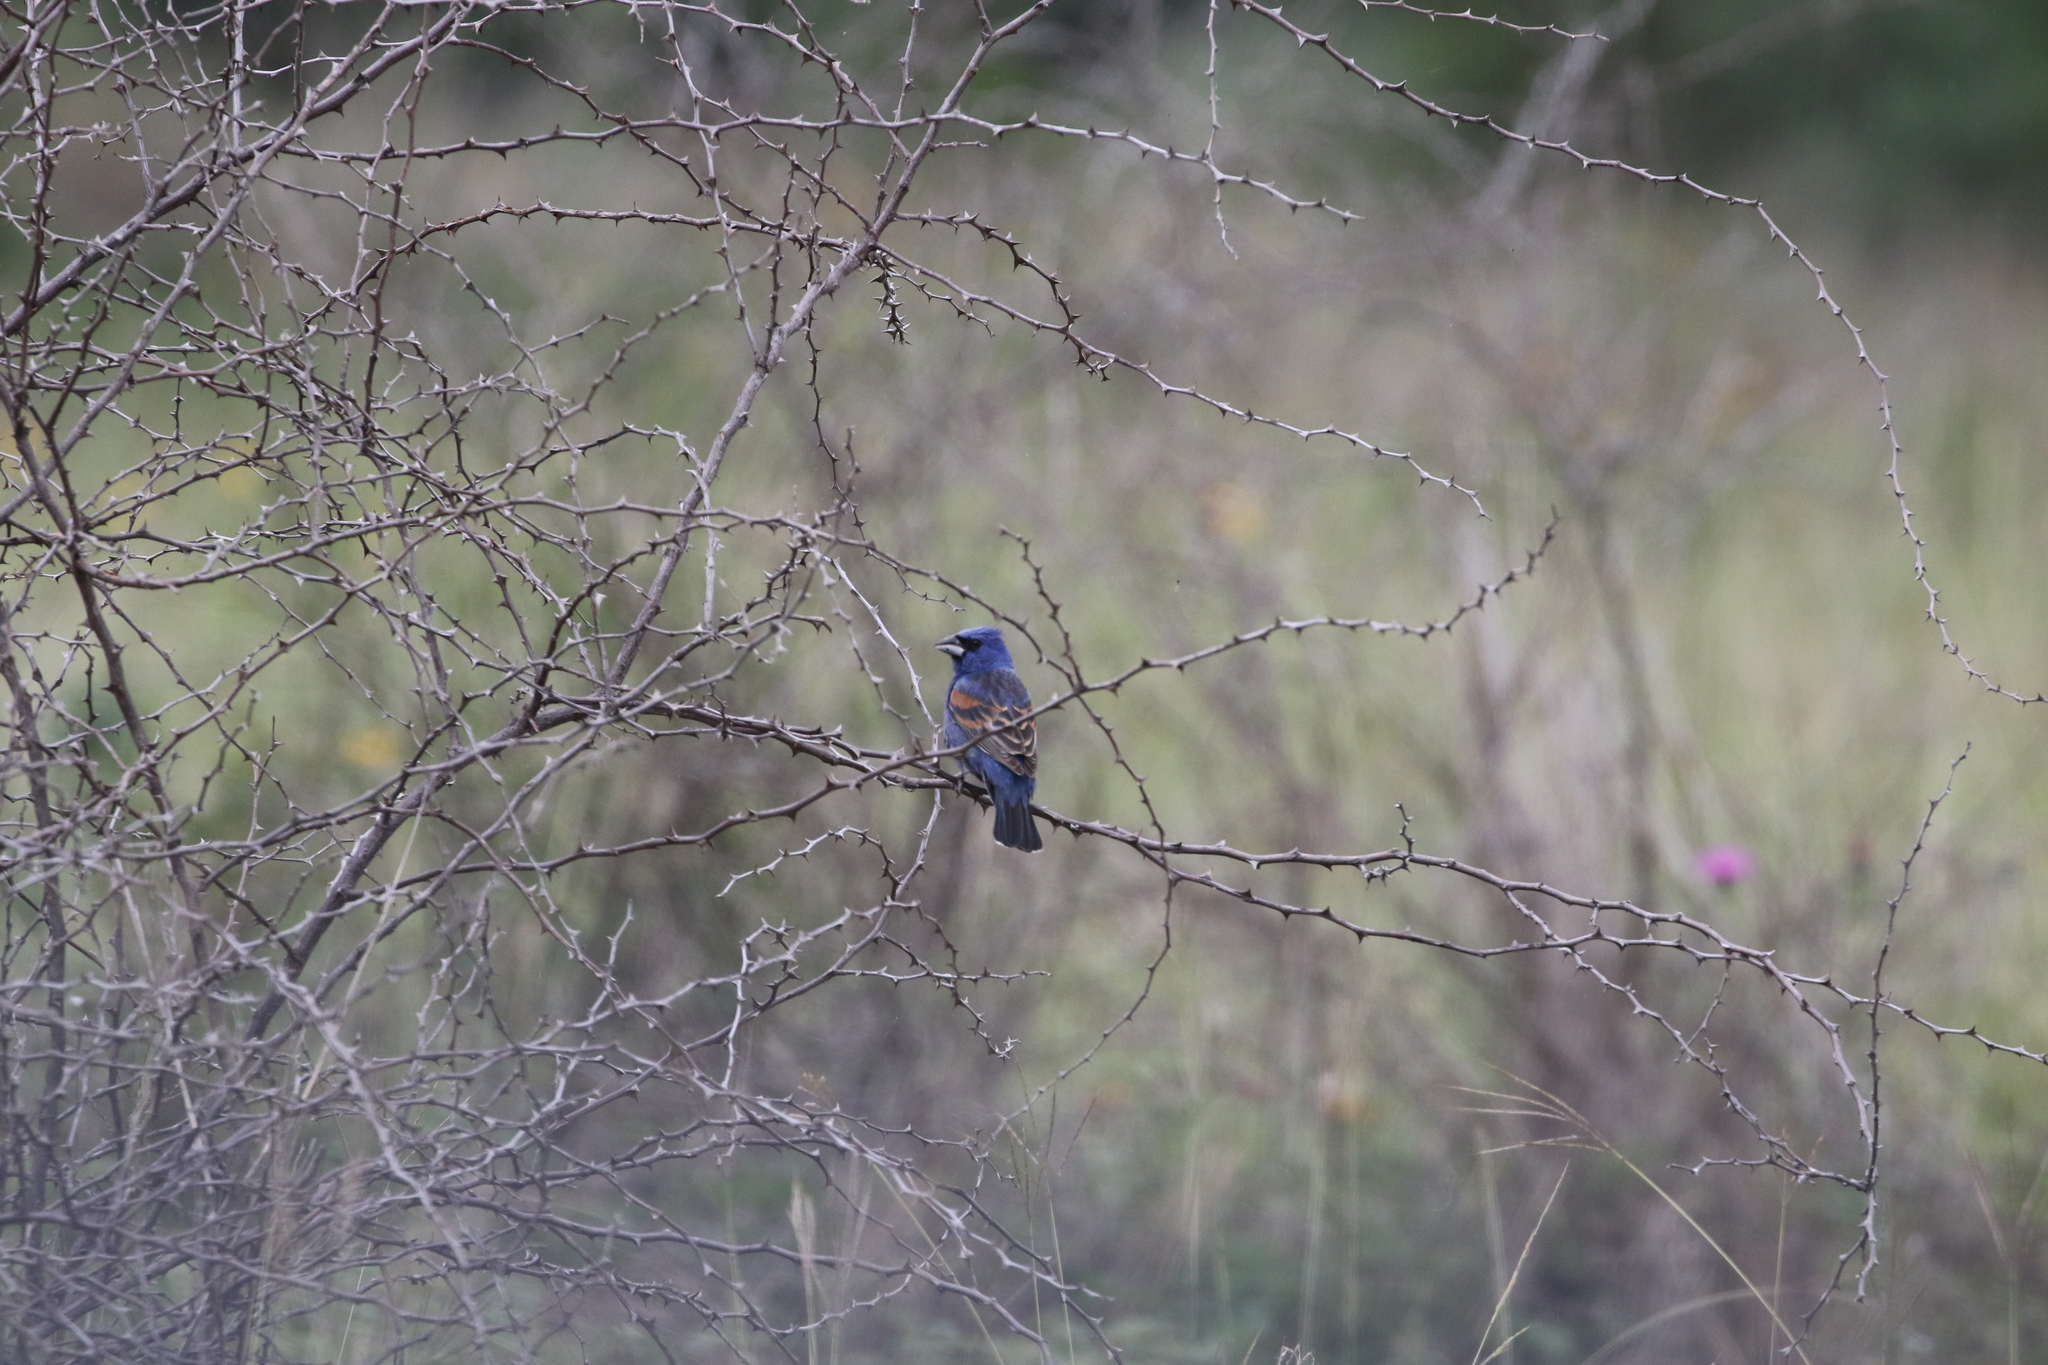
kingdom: Animalia
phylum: Chordata
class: Aves
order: Passeriformes
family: Cardinalidae
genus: Passerina
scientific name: Passerina caerulea
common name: Blue grosbeak
